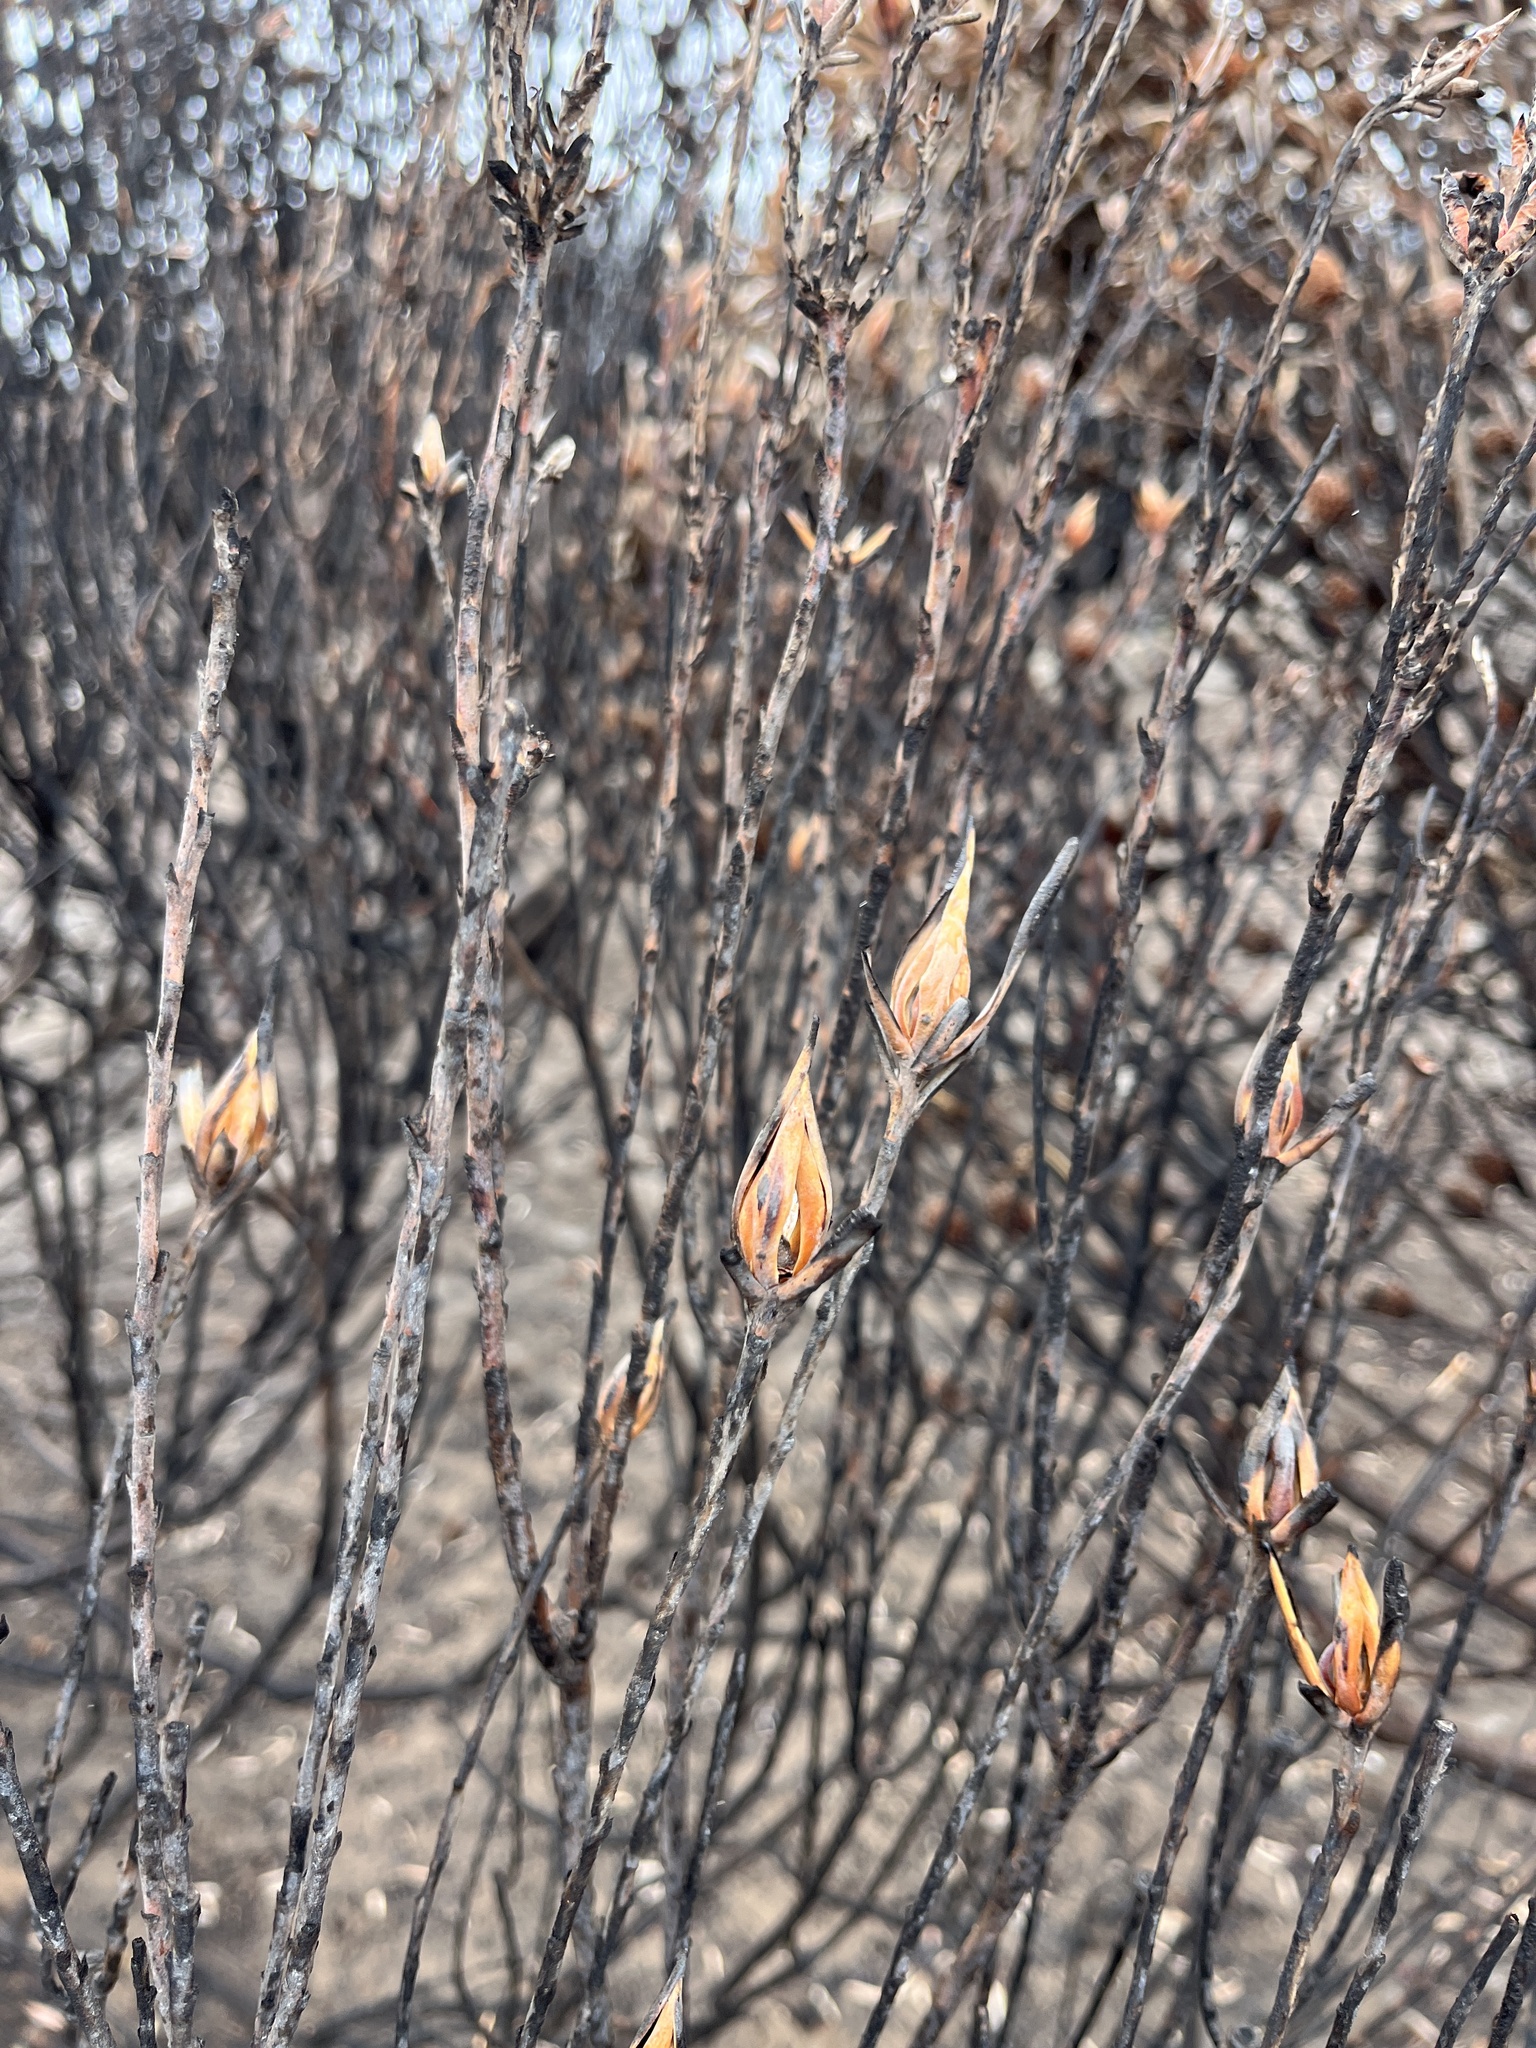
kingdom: Plantae
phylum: Tracheophyta
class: Magnoliopsida
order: Proteales
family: Proteaceae
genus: Leucadendron
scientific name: Leucadendron coniferum
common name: Dune conebush
